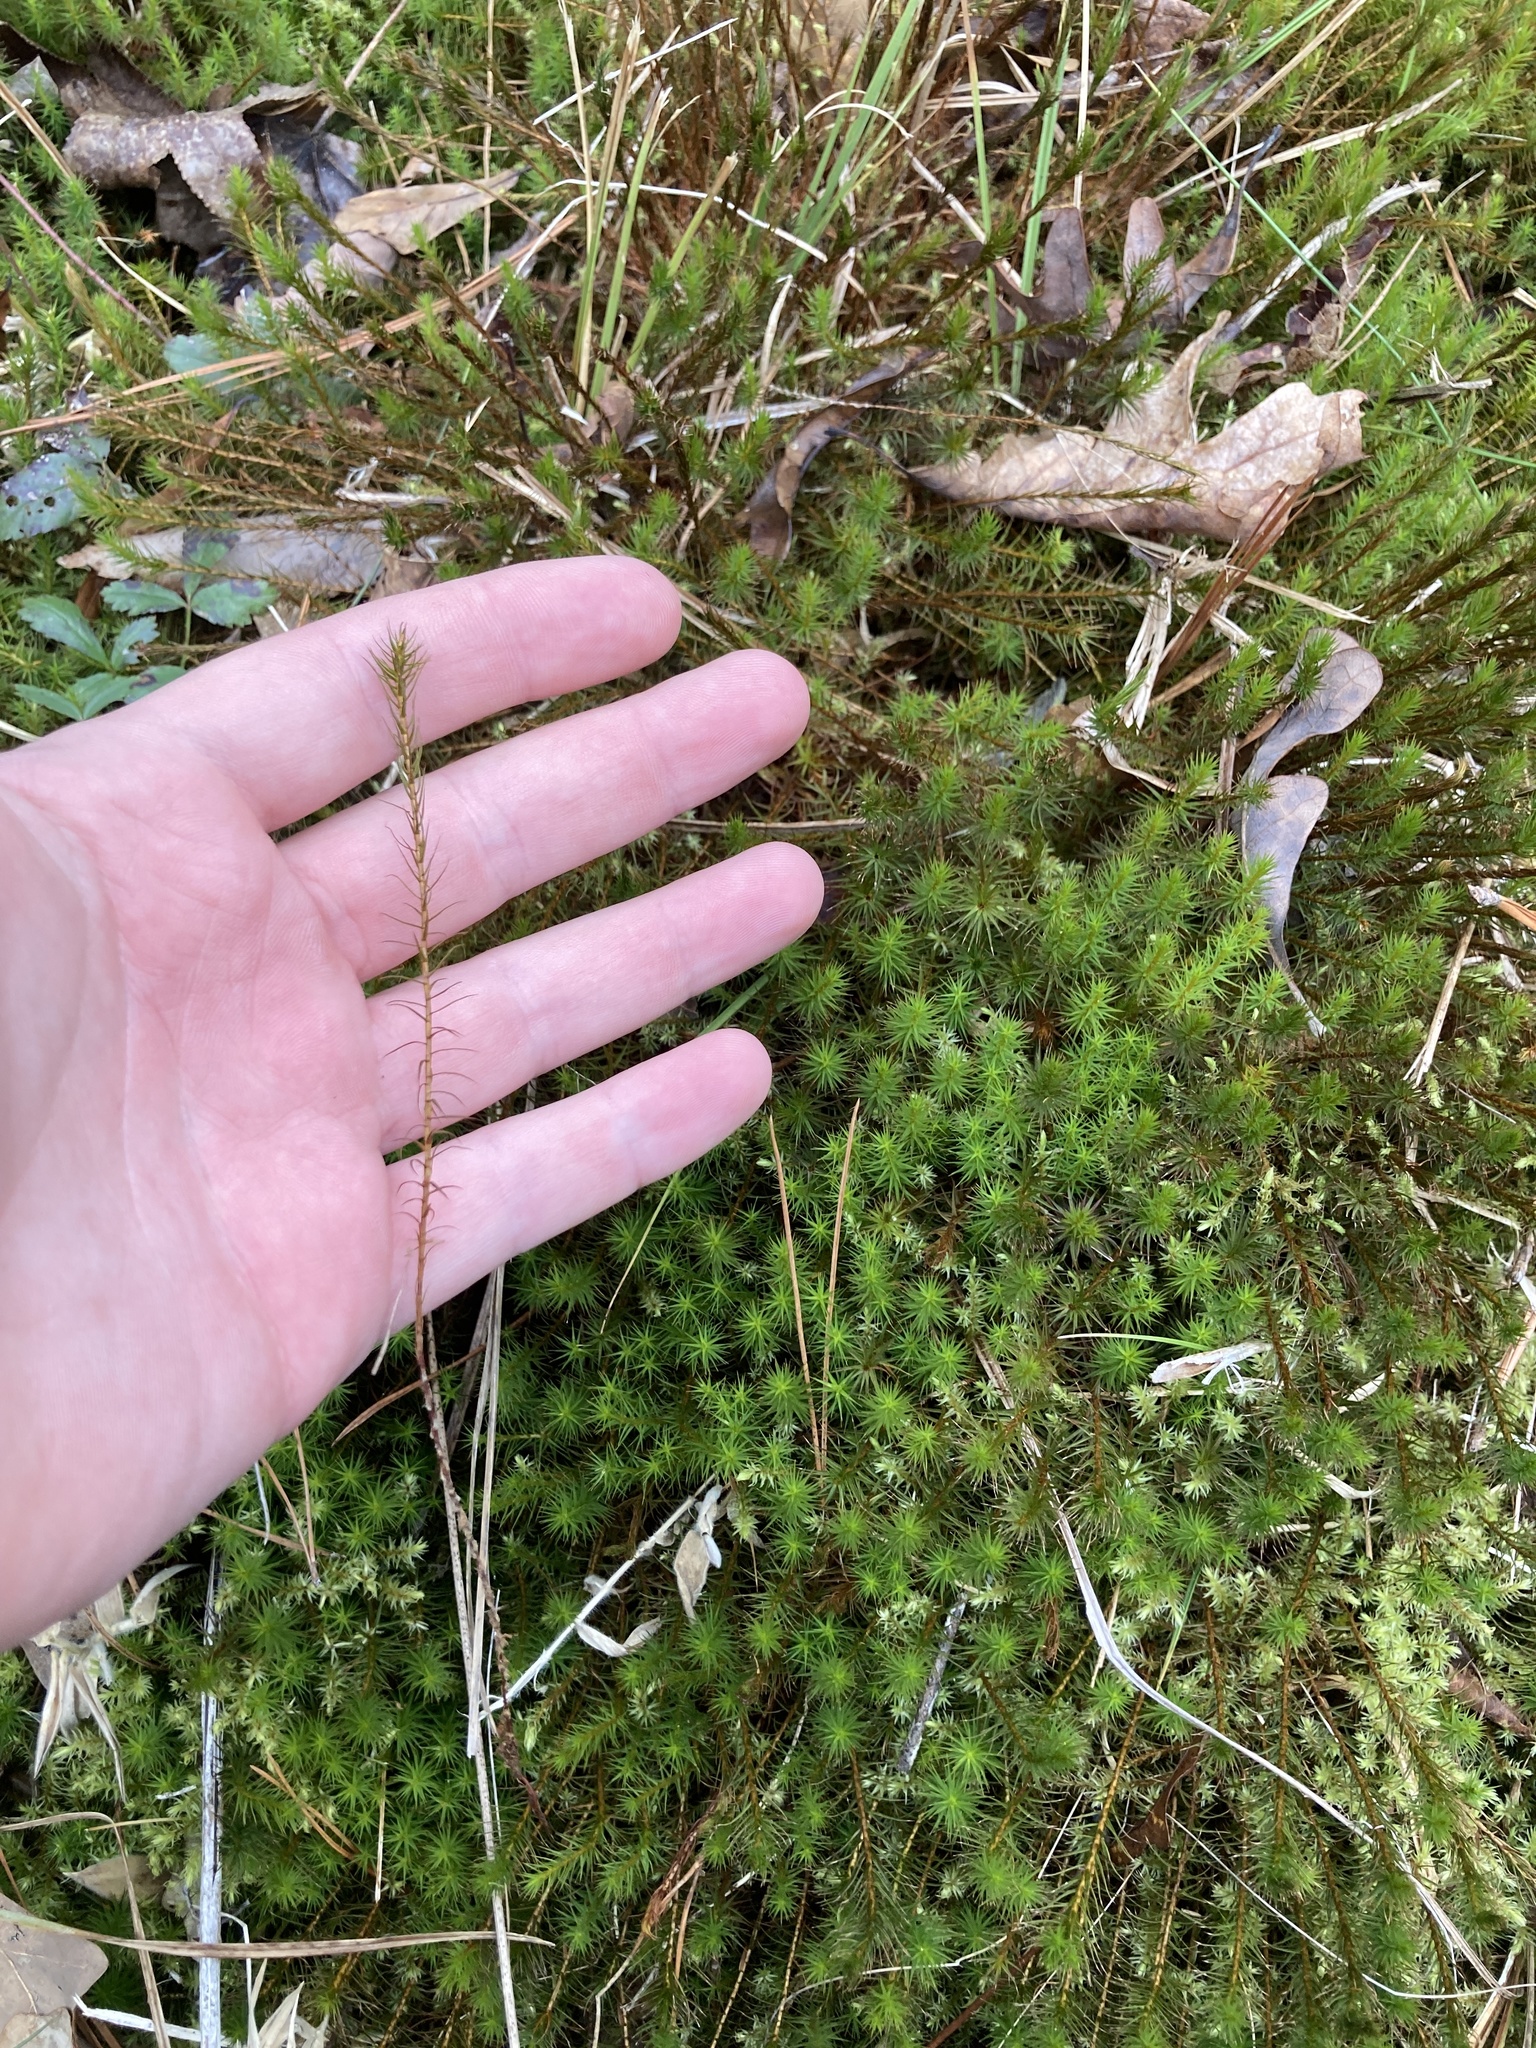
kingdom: Plantae
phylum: Bryophyta
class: Polytrichopsida
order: Polytrichales
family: Polytrichaceae
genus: Polytrichum
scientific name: Polytrichum commune
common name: Common haircap
